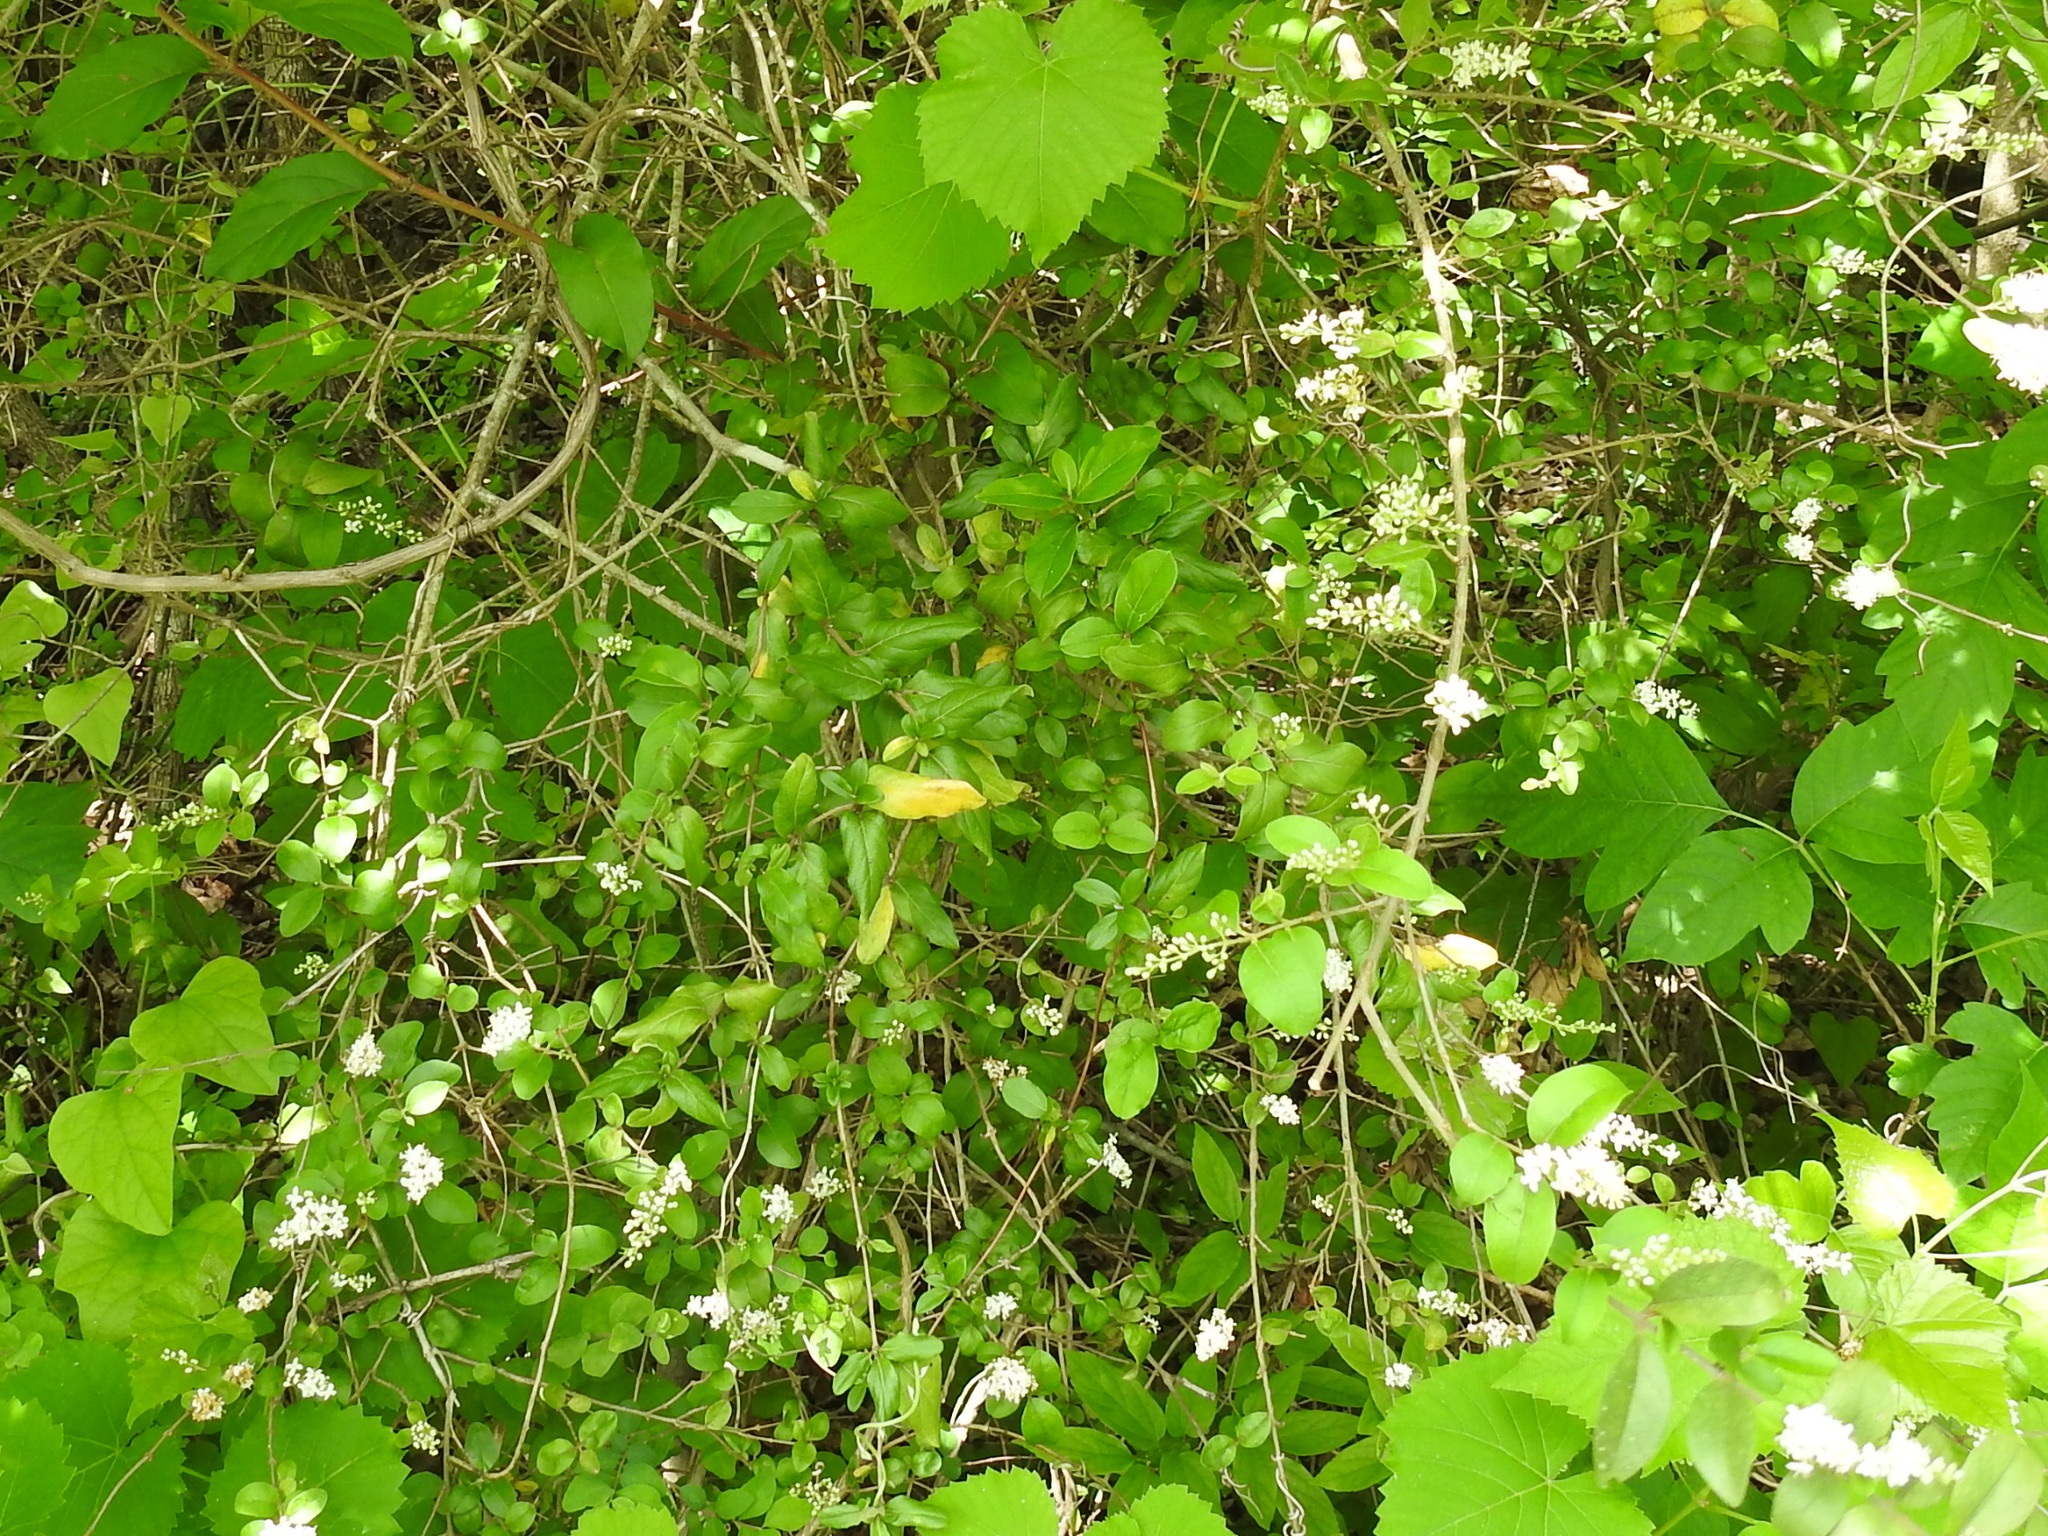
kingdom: Plantae
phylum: Tracheophyta
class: Magnoliopsida
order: Lamiales
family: Oleaceae
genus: Ligustrum
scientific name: Ligustrum sinense
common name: Chinese privet
